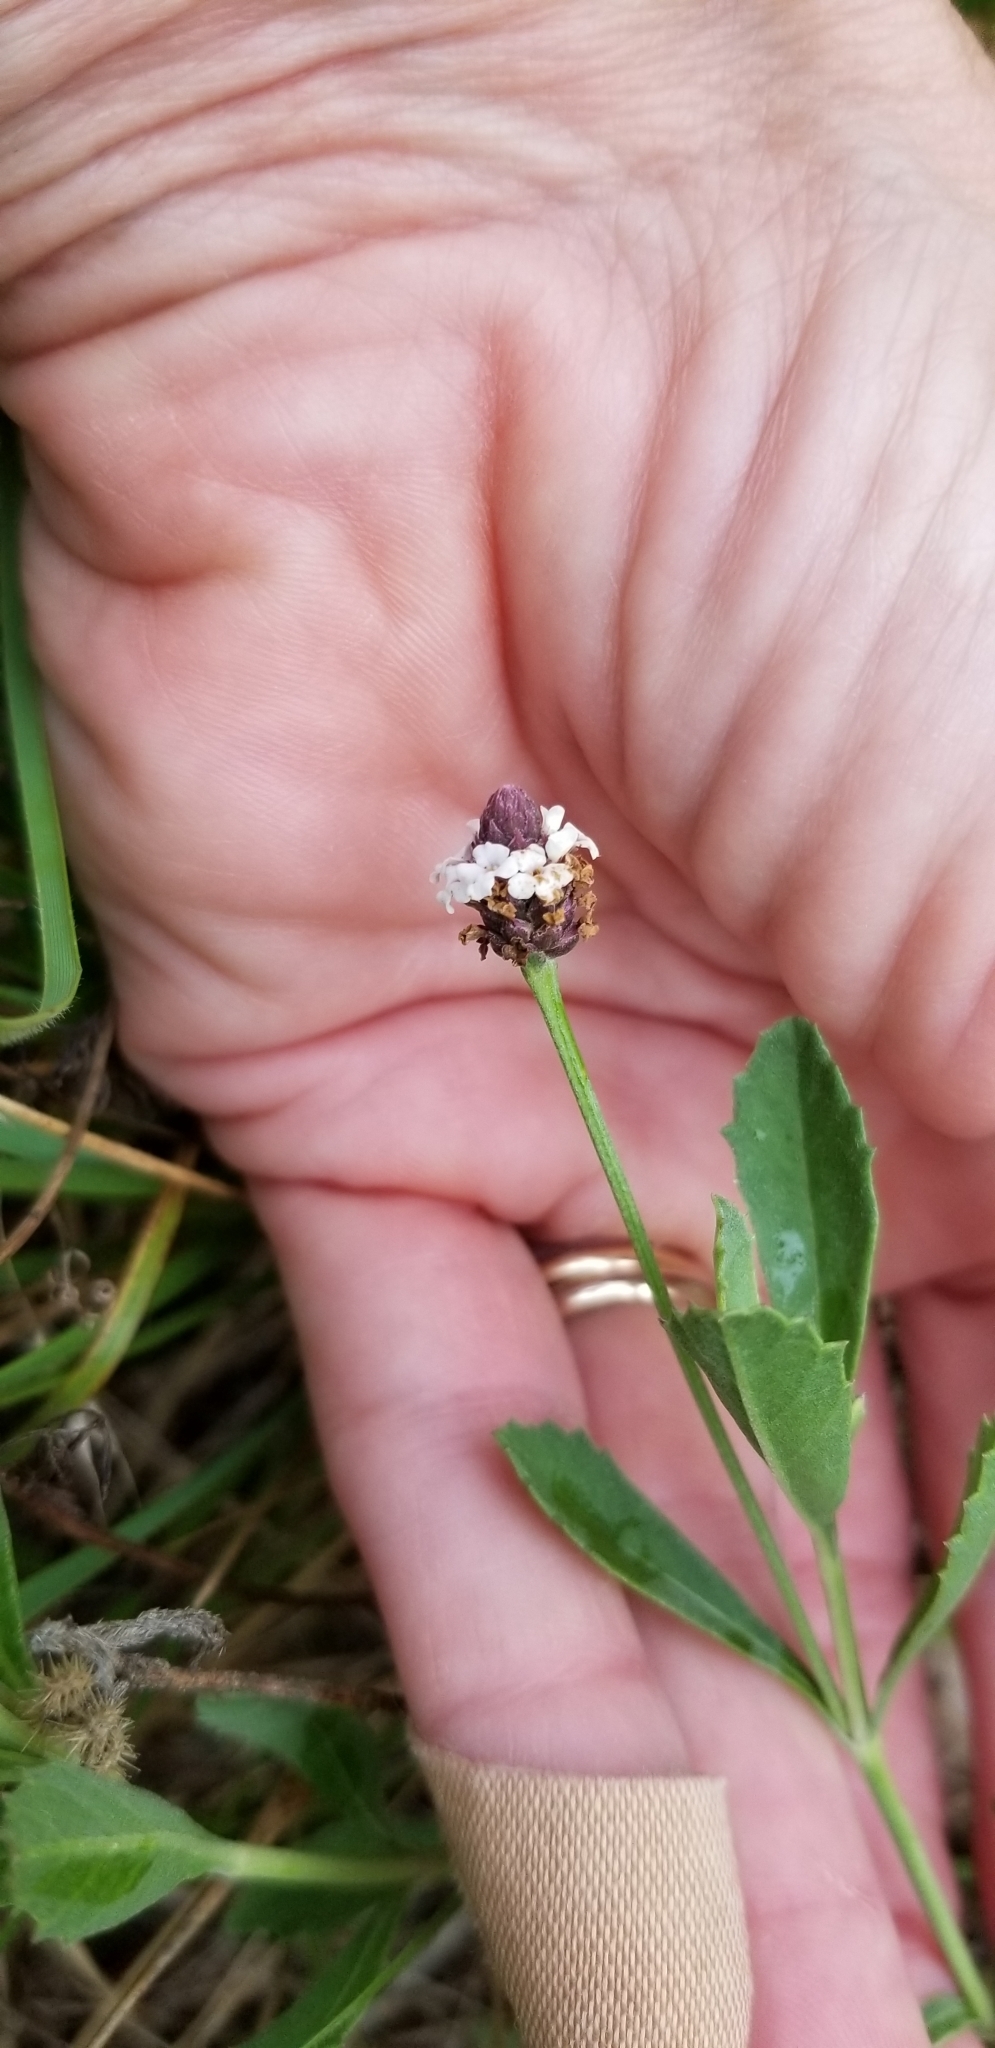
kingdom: Plantae
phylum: Tracheophyta
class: Magnoliopsida
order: Lamiales
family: Verbenaceae
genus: Phyla
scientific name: Phyla nodiflora
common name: Frogfruit
